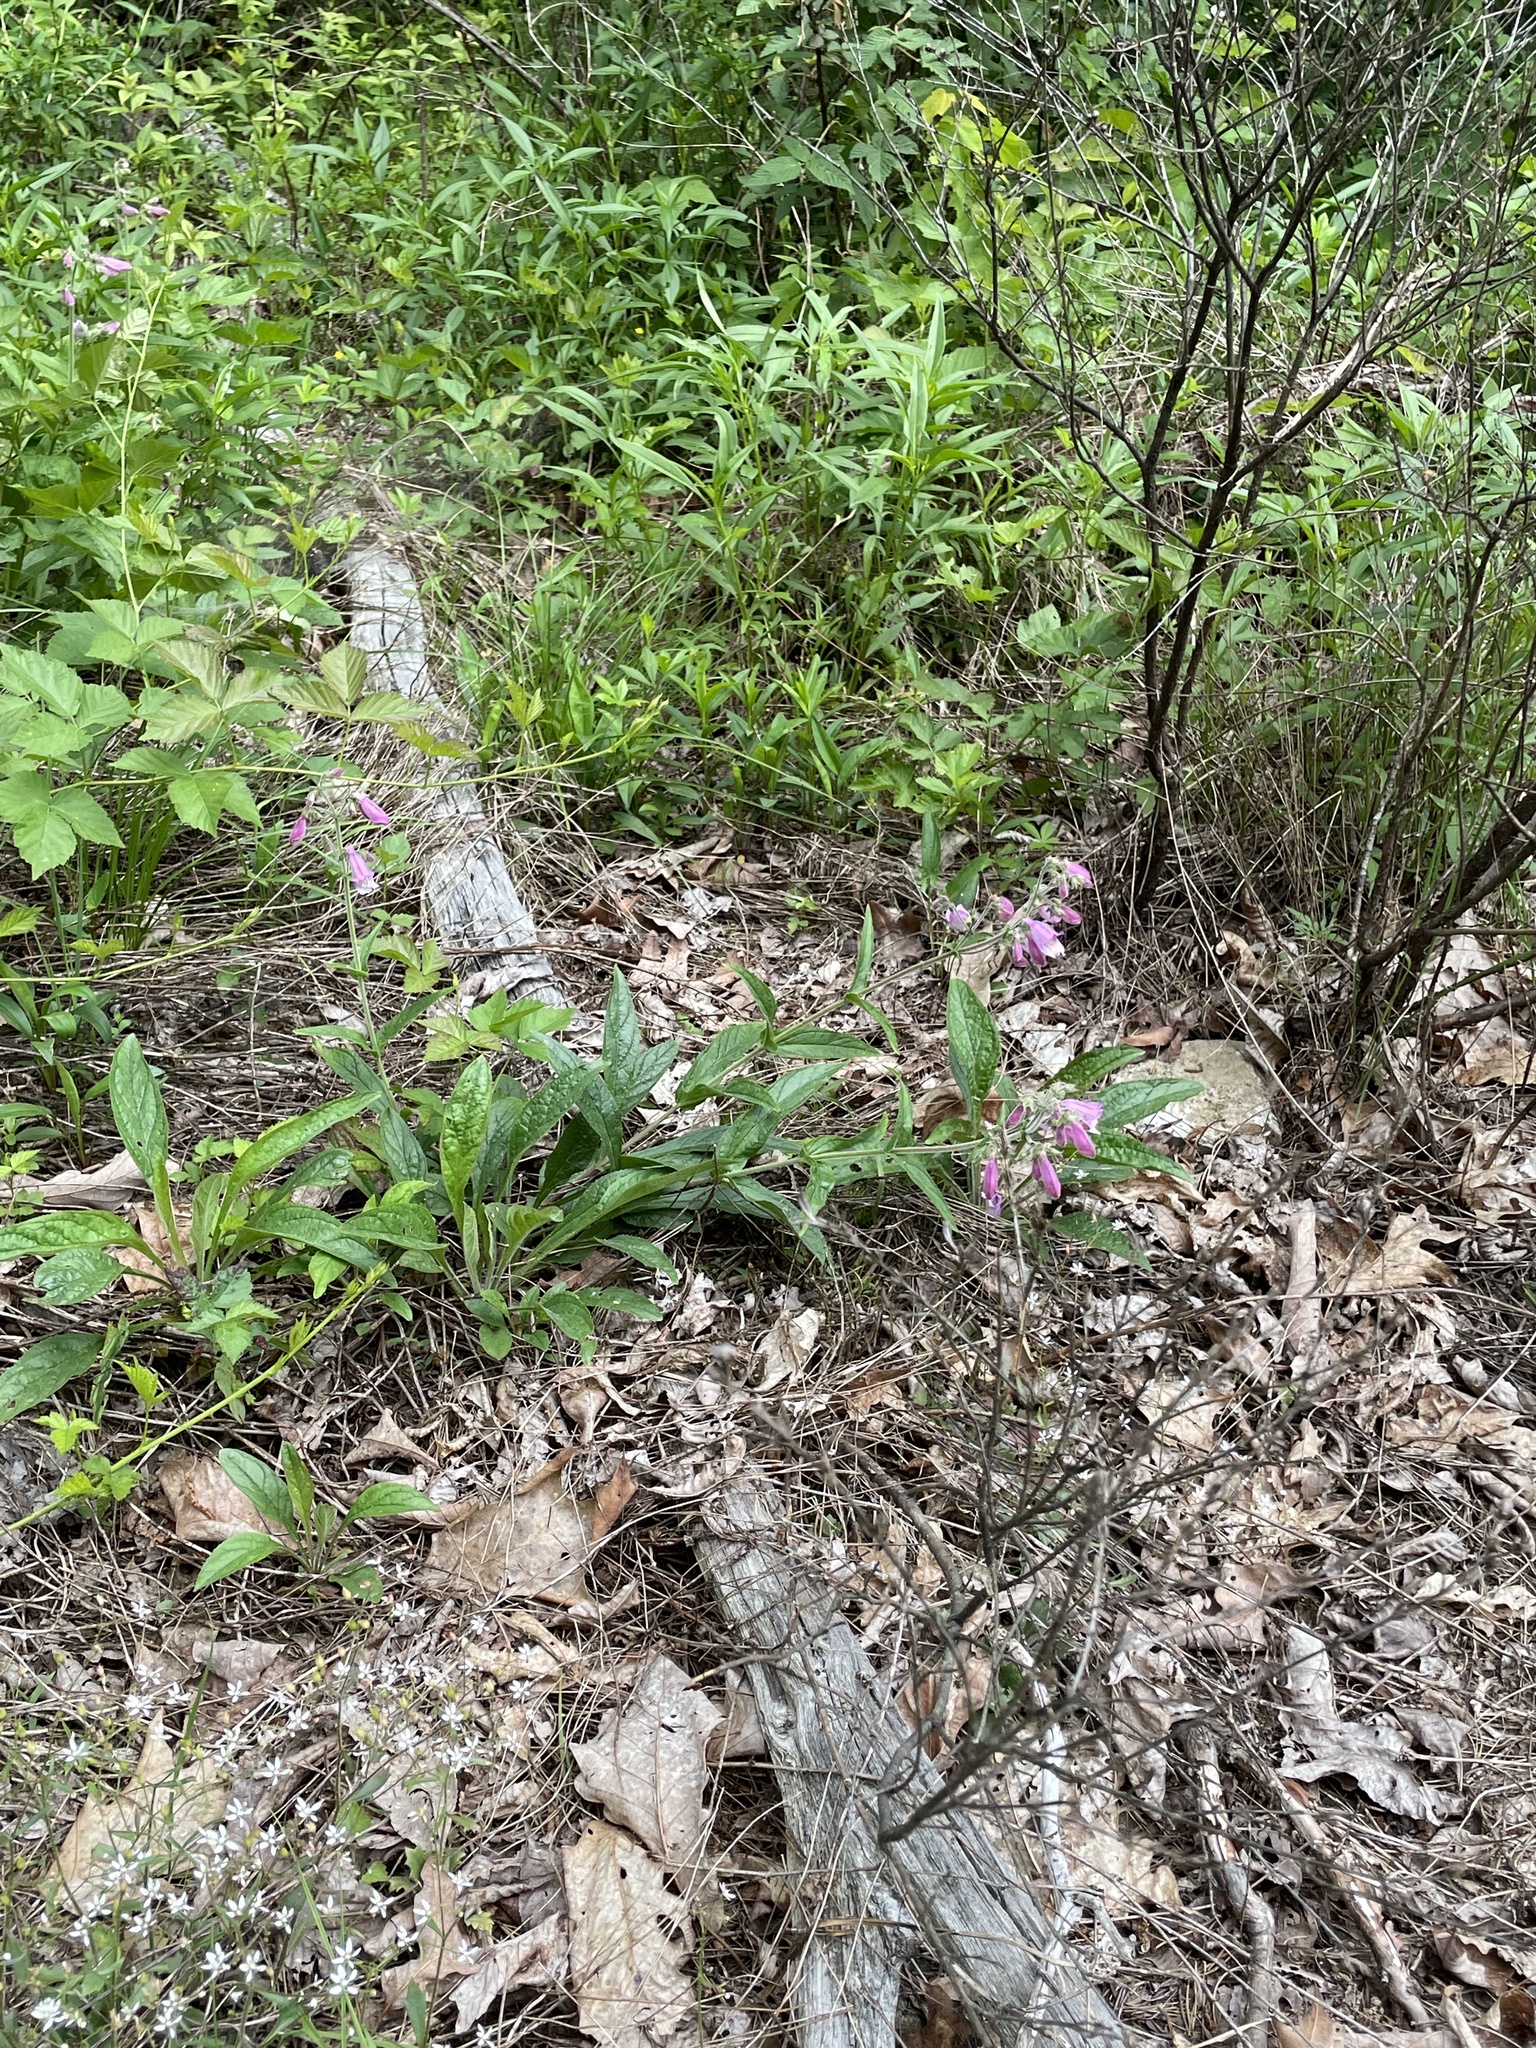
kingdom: Plantae
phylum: Tracheophyta
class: Magnoliopsida
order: Lamiales
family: Plantaginaceae
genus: Penstemon
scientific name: Penstemon smallii
